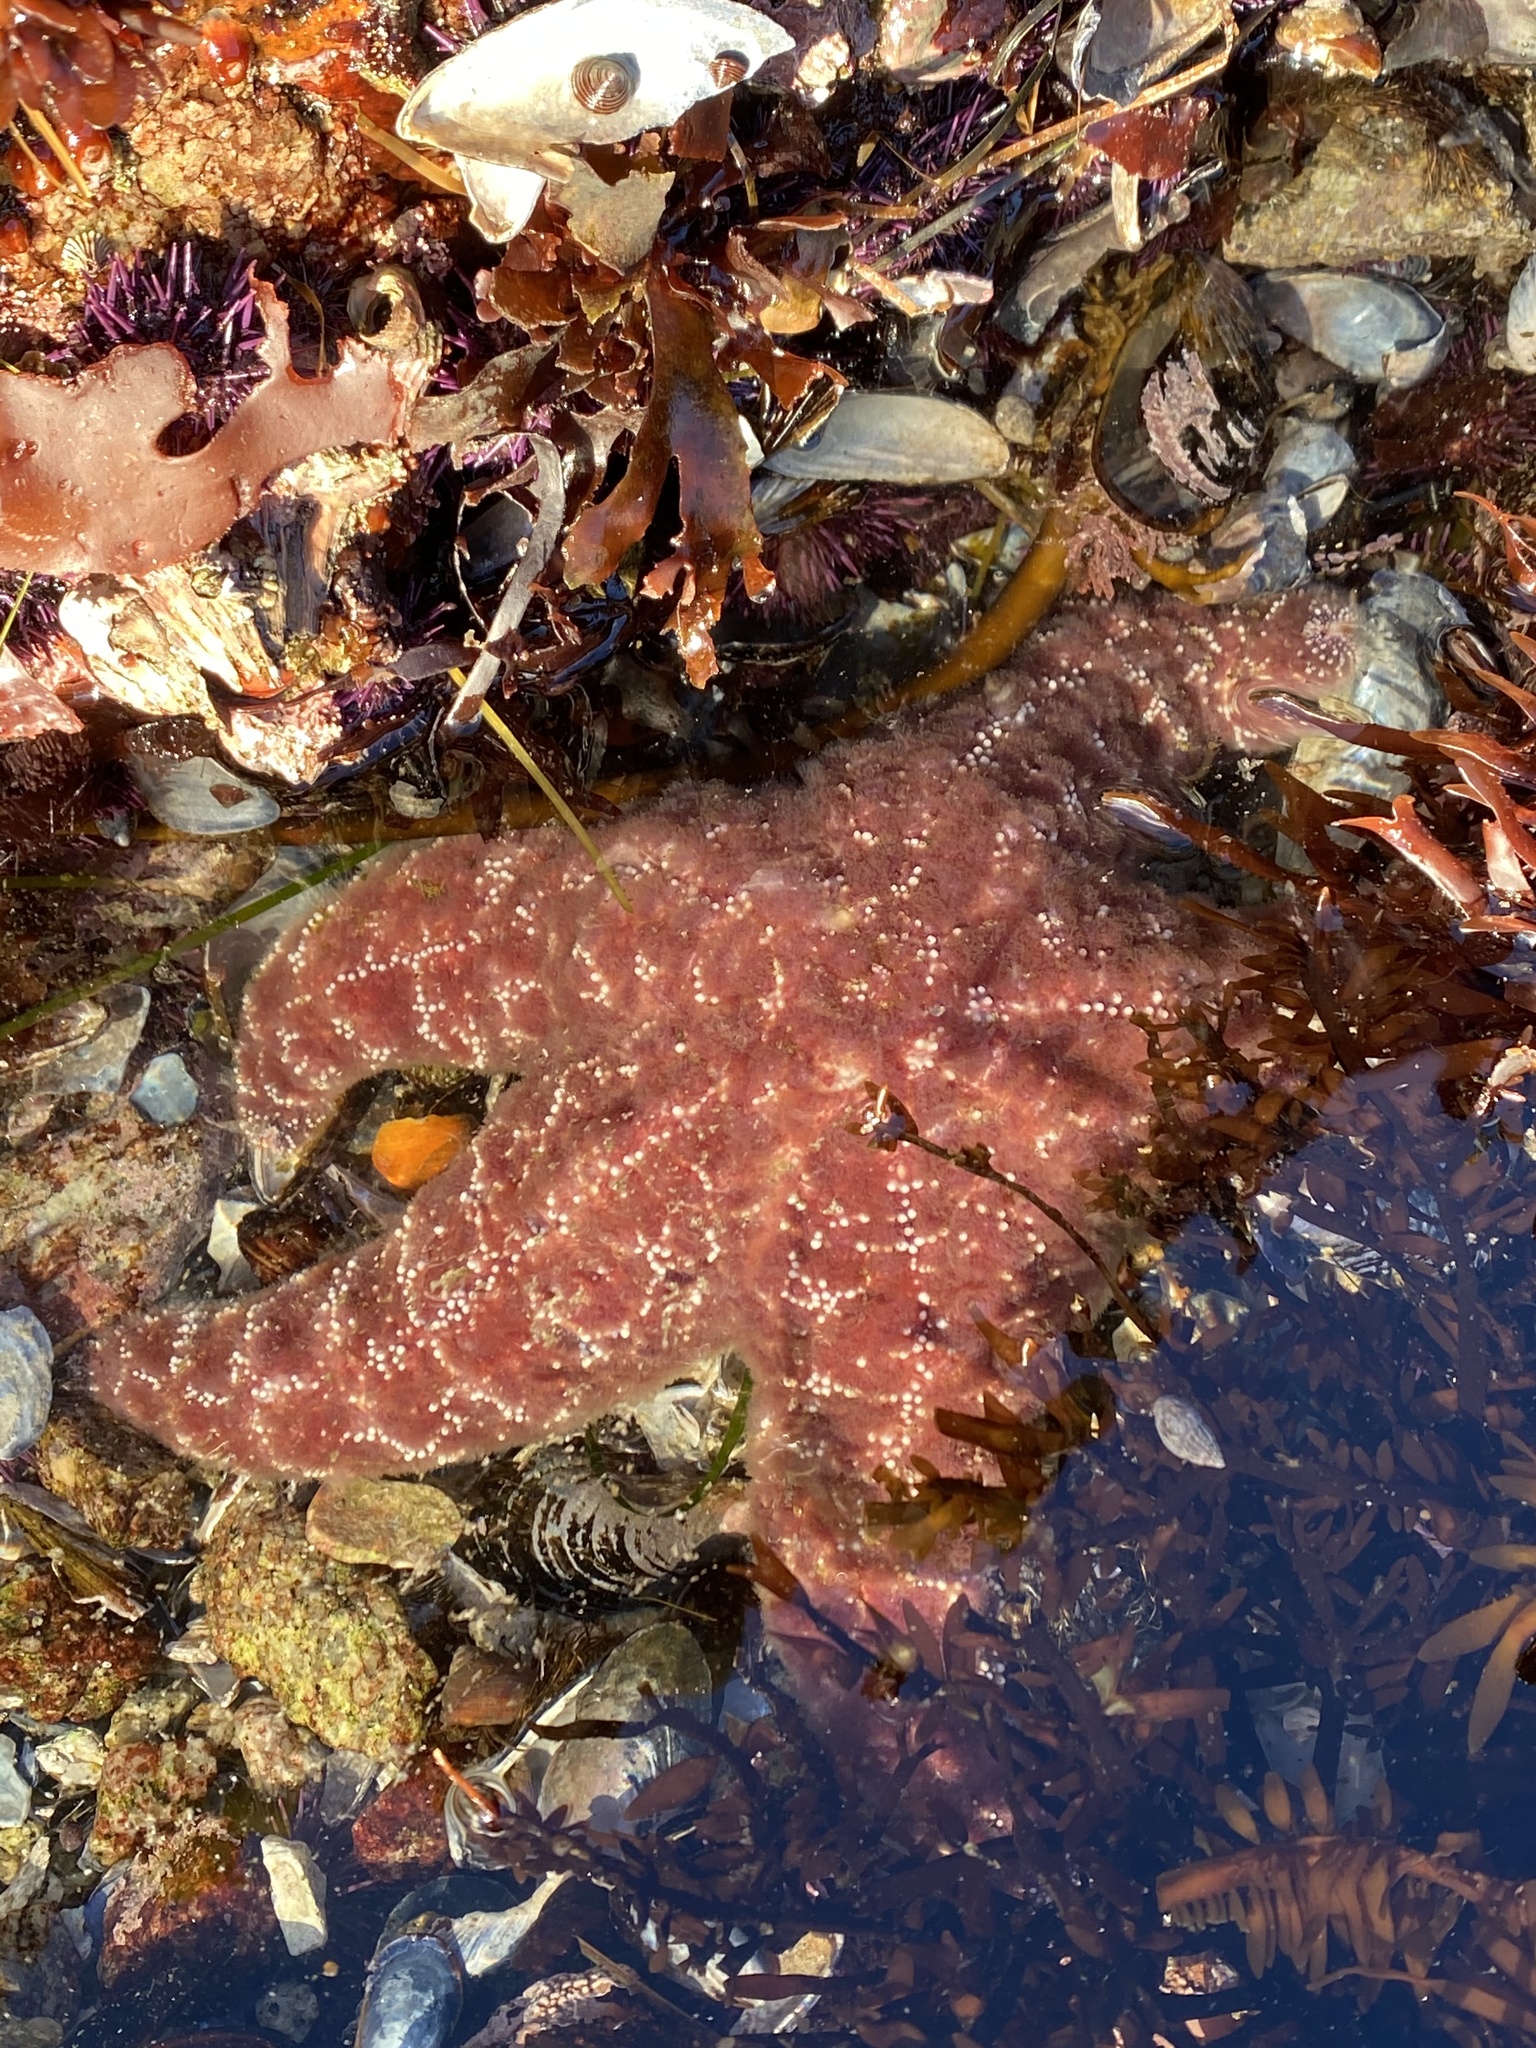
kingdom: Animalia
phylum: Echinodermata
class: Asteroidea
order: Forcipulatida
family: Asteriidae
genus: Pisaster
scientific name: Pisaster ochraceus
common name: Ochre stars
